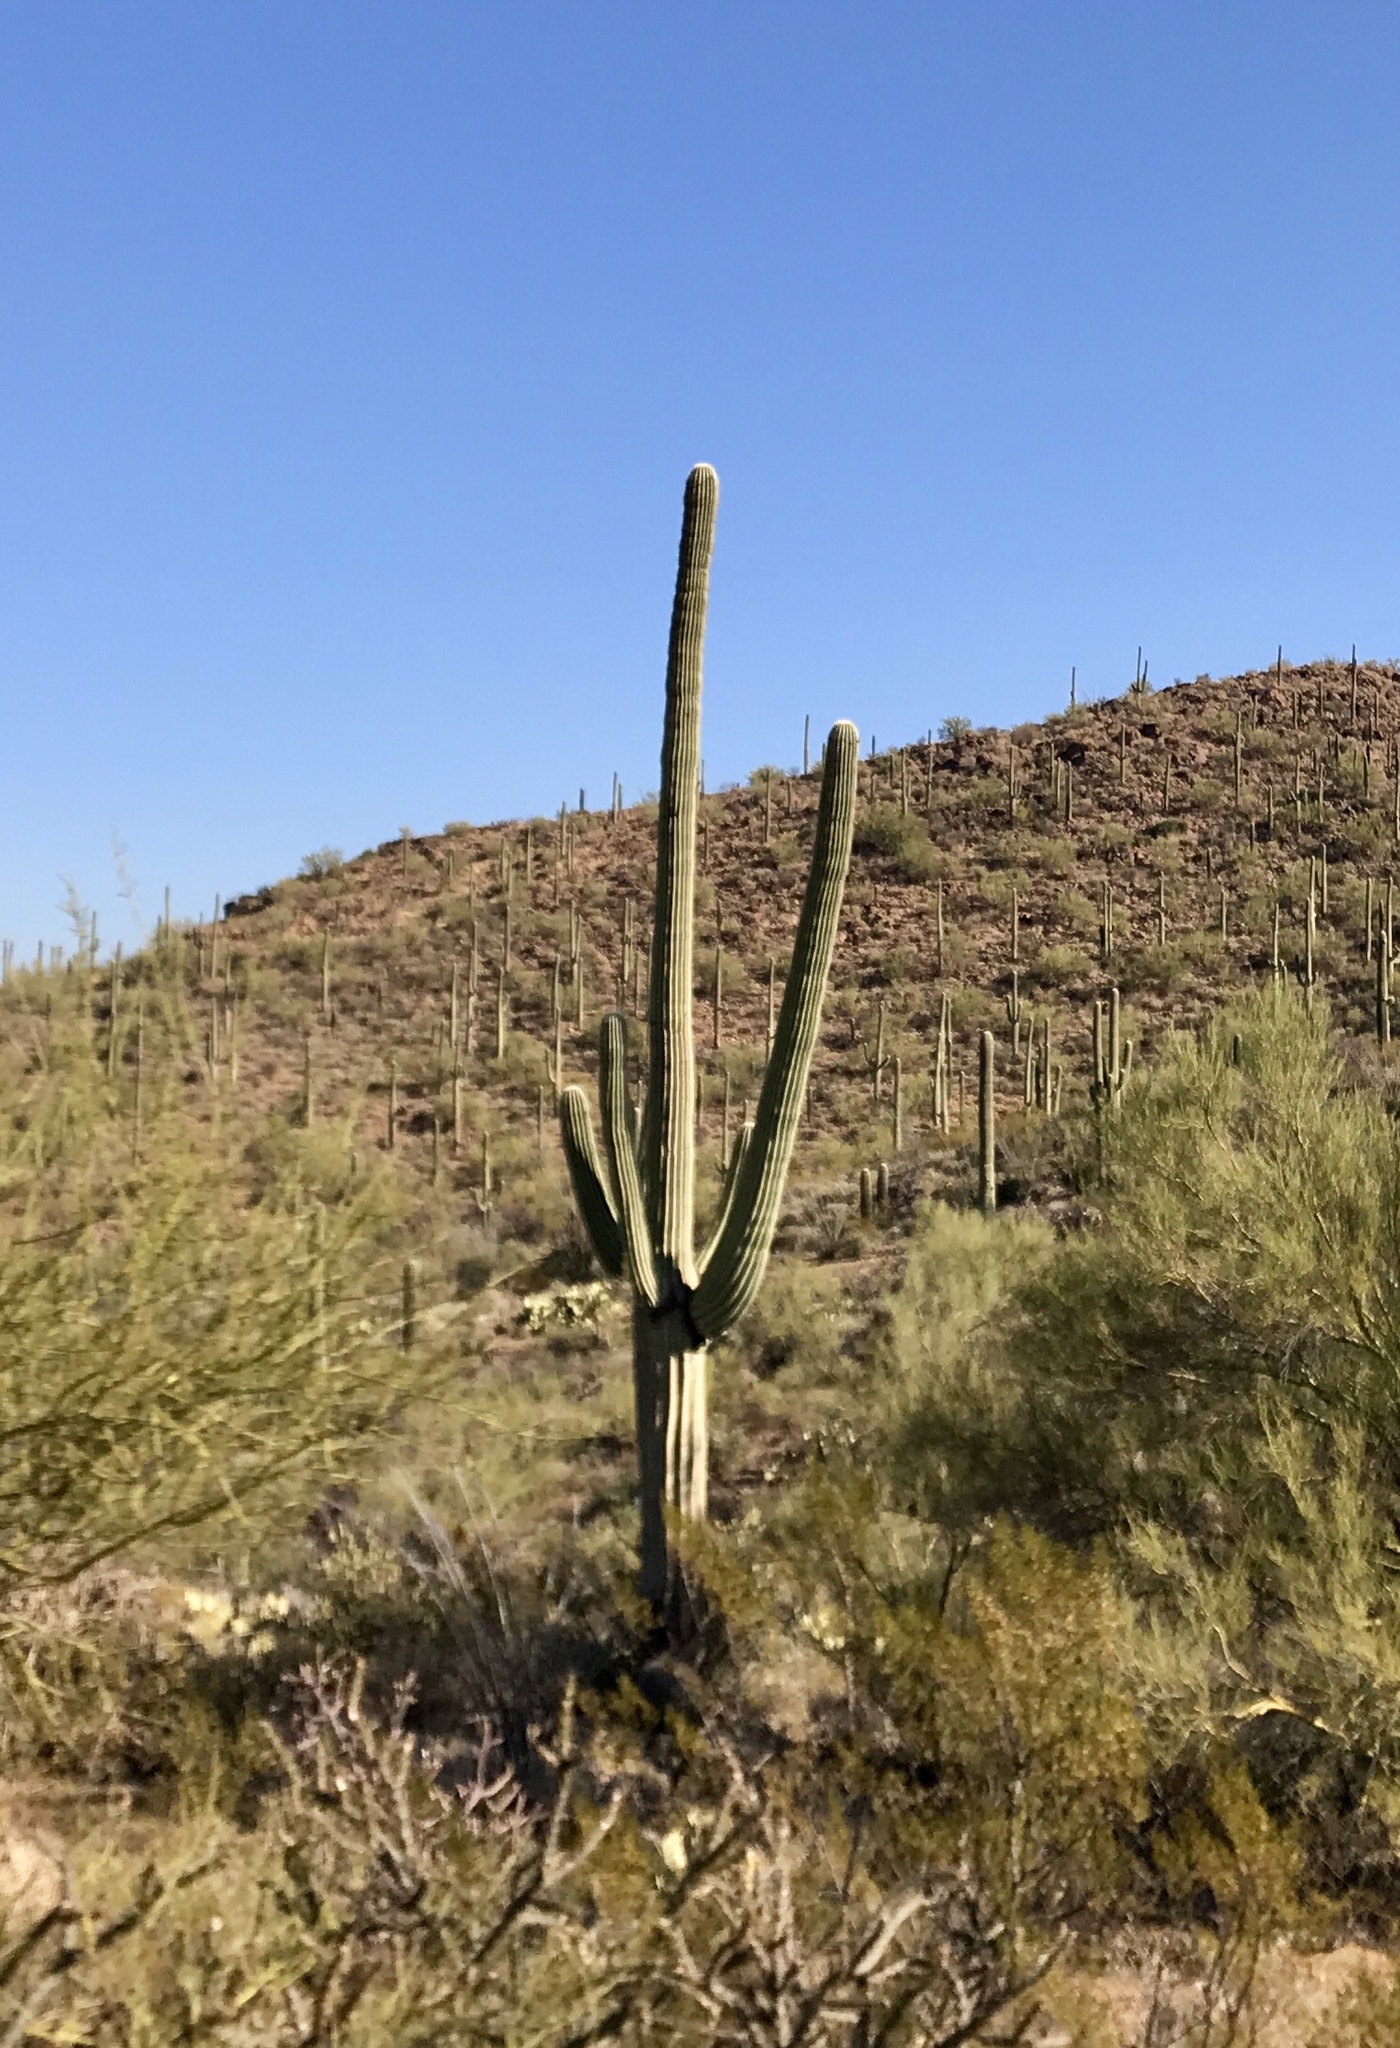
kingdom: Plantae
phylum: Tracheophyta
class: Magnoliopsida
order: Caryophyllales
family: Cactaceae
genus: Carnegiea
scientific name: Carnegiea gigantea
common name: Saguaro
